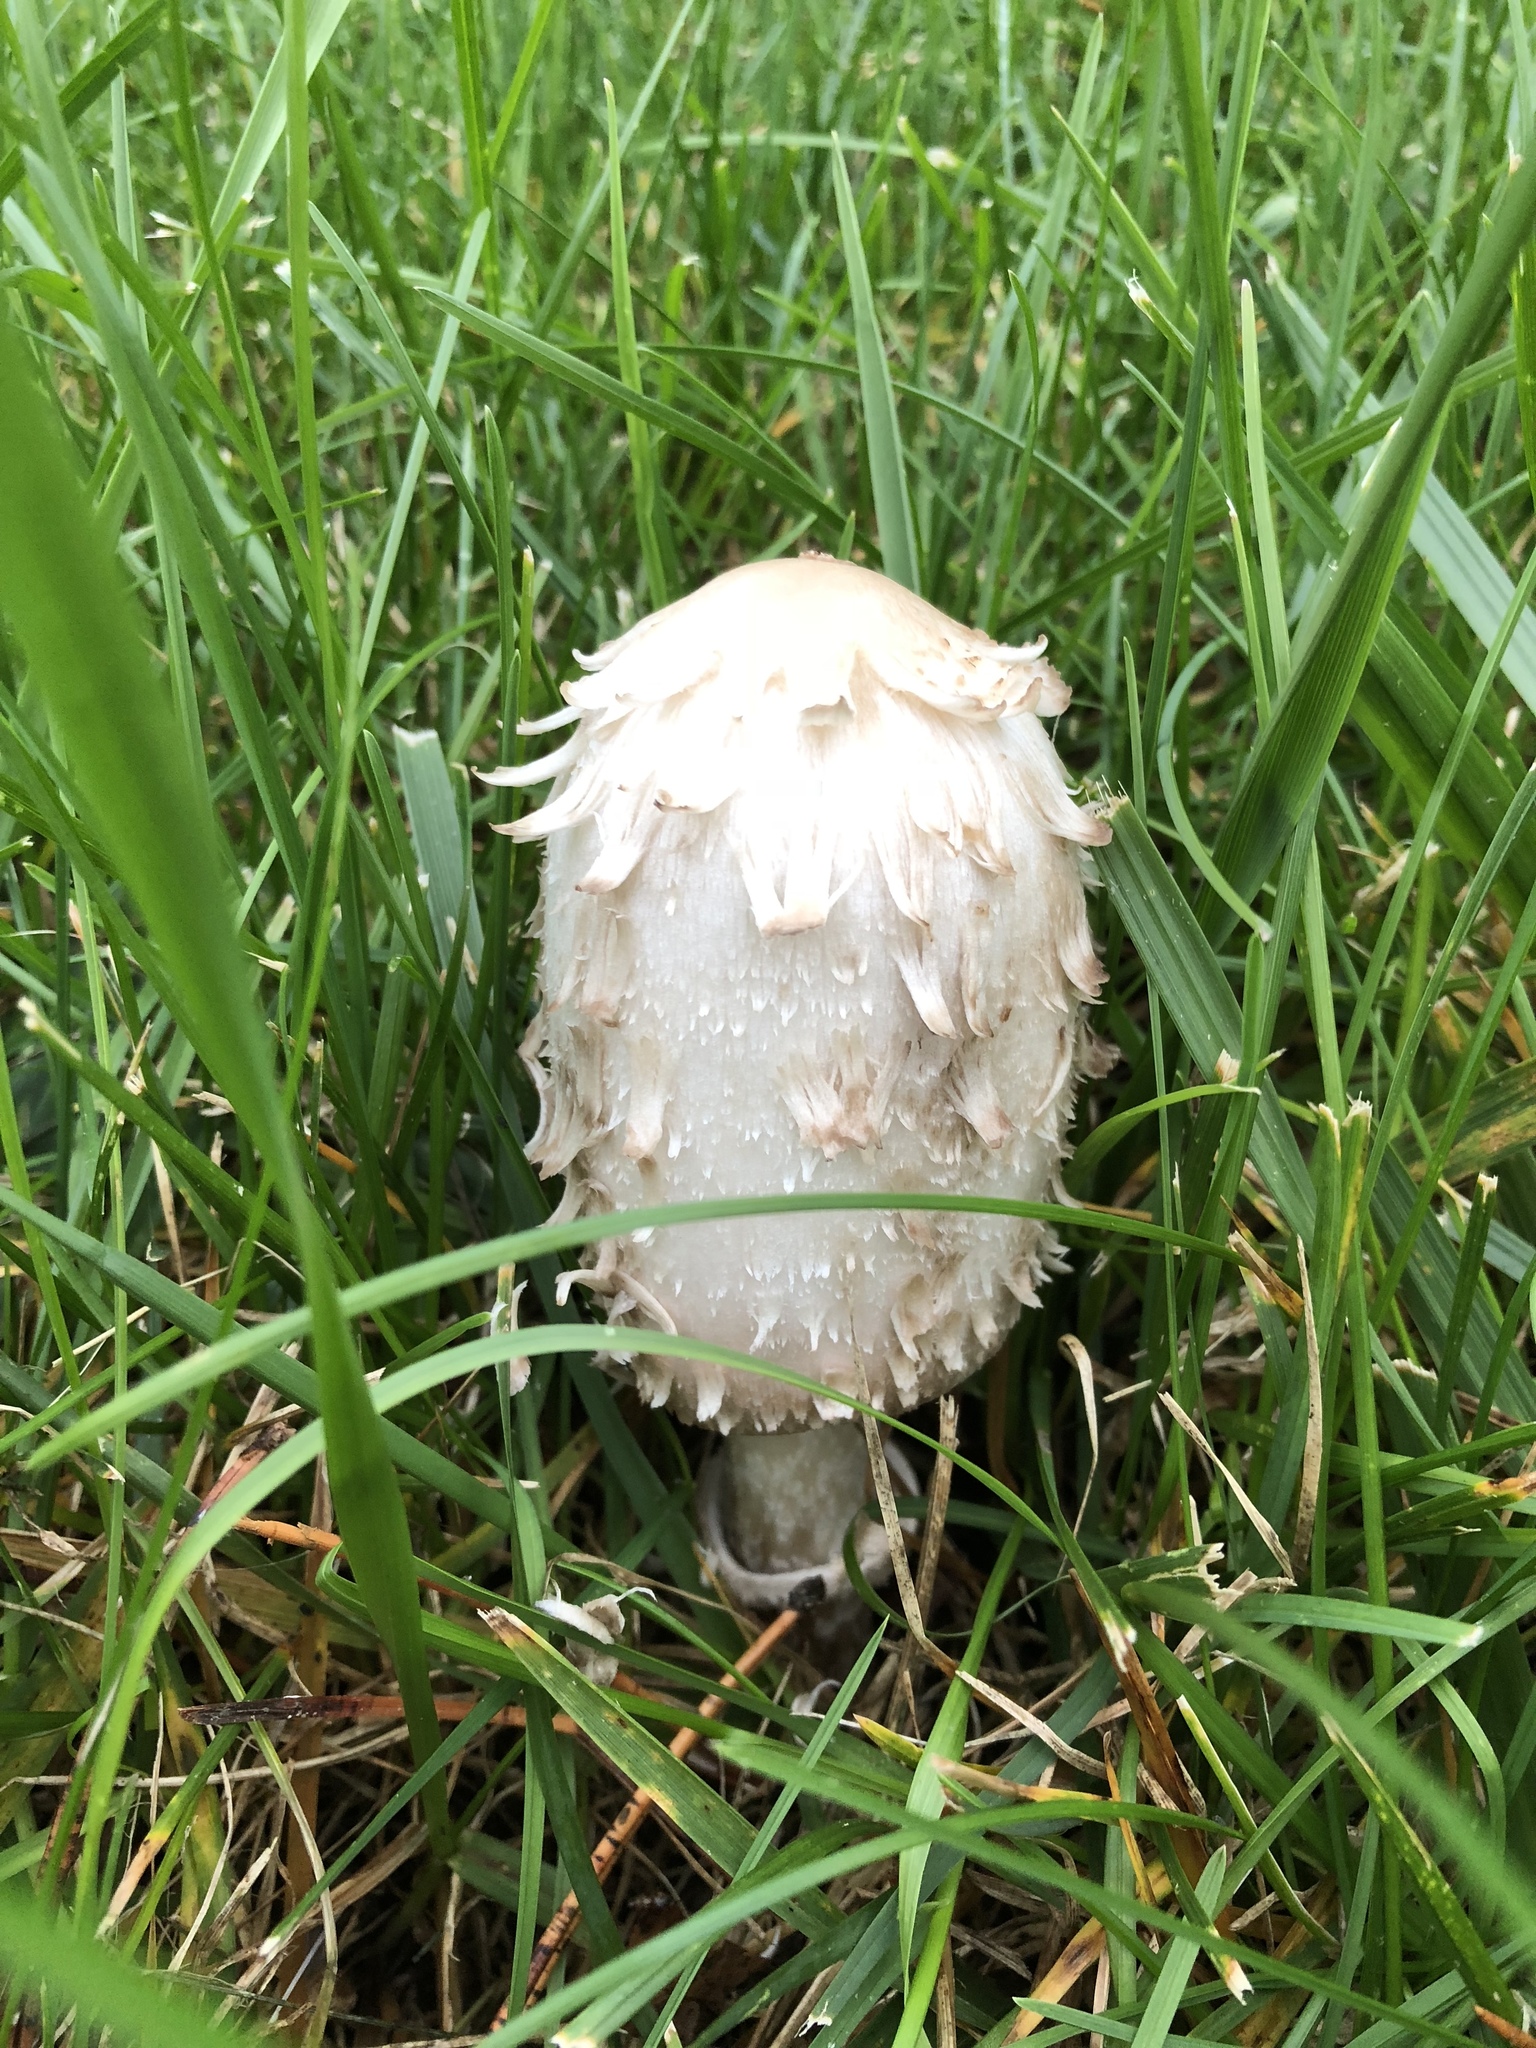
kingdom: Fungi
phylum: Basidiomycota
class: Agaricomycetes
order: Agaricales
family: Agaricaceae
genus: Coprinus
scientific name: Coprinus comatus
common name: Lawyer's wig
